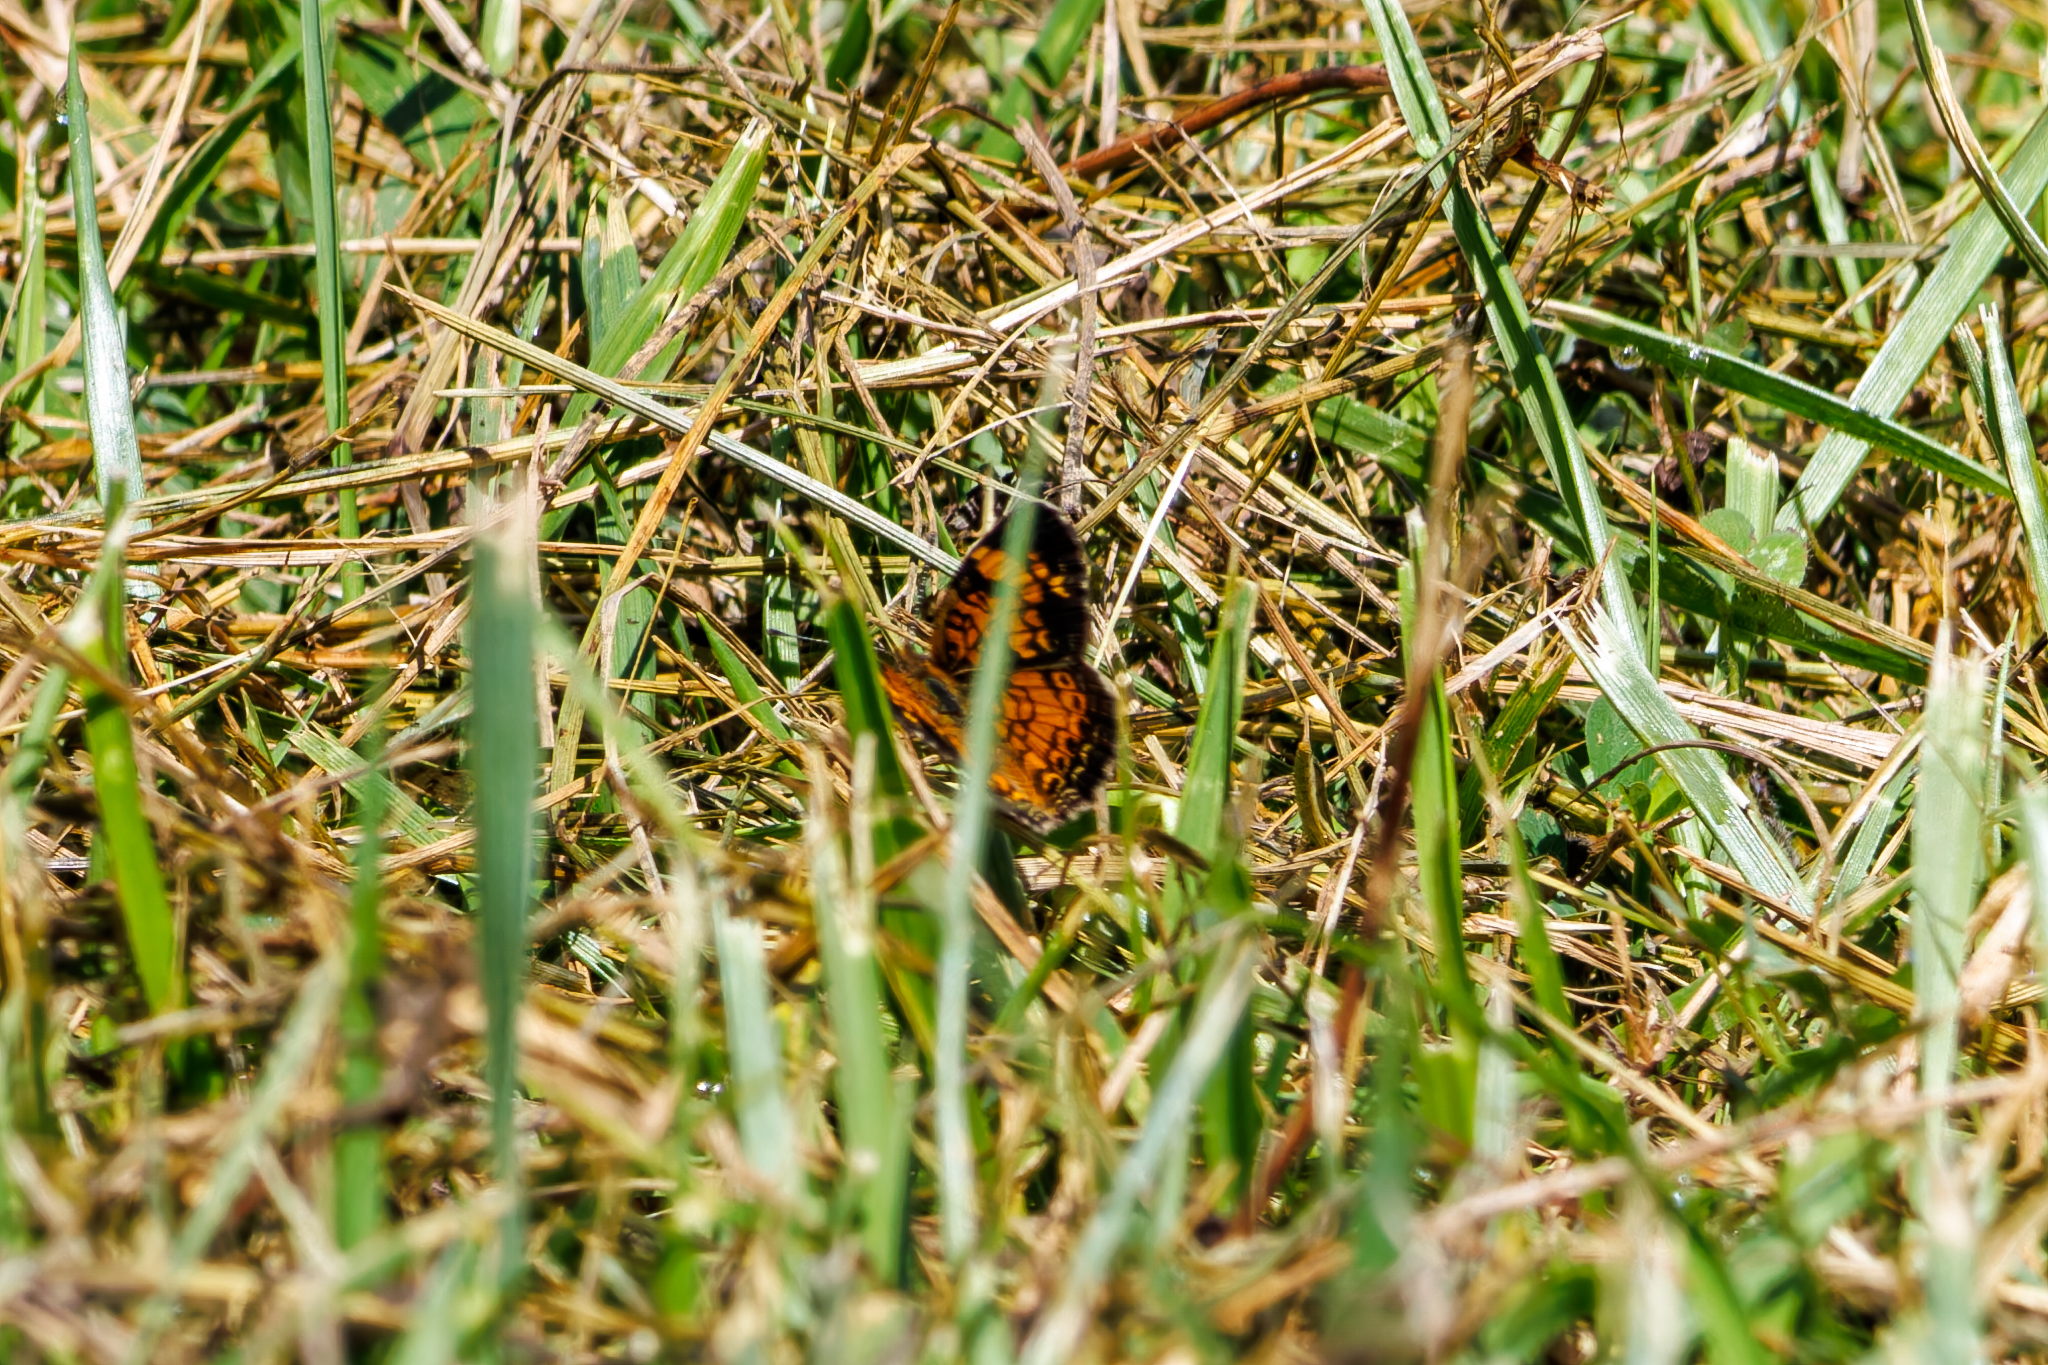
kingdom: Animalia
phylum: Arthropoda
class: Insecta
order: Lepidoptera
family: Nymphalidae
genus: Phyciodes
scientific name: Phyciodes tharos
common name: Pearl crescent
